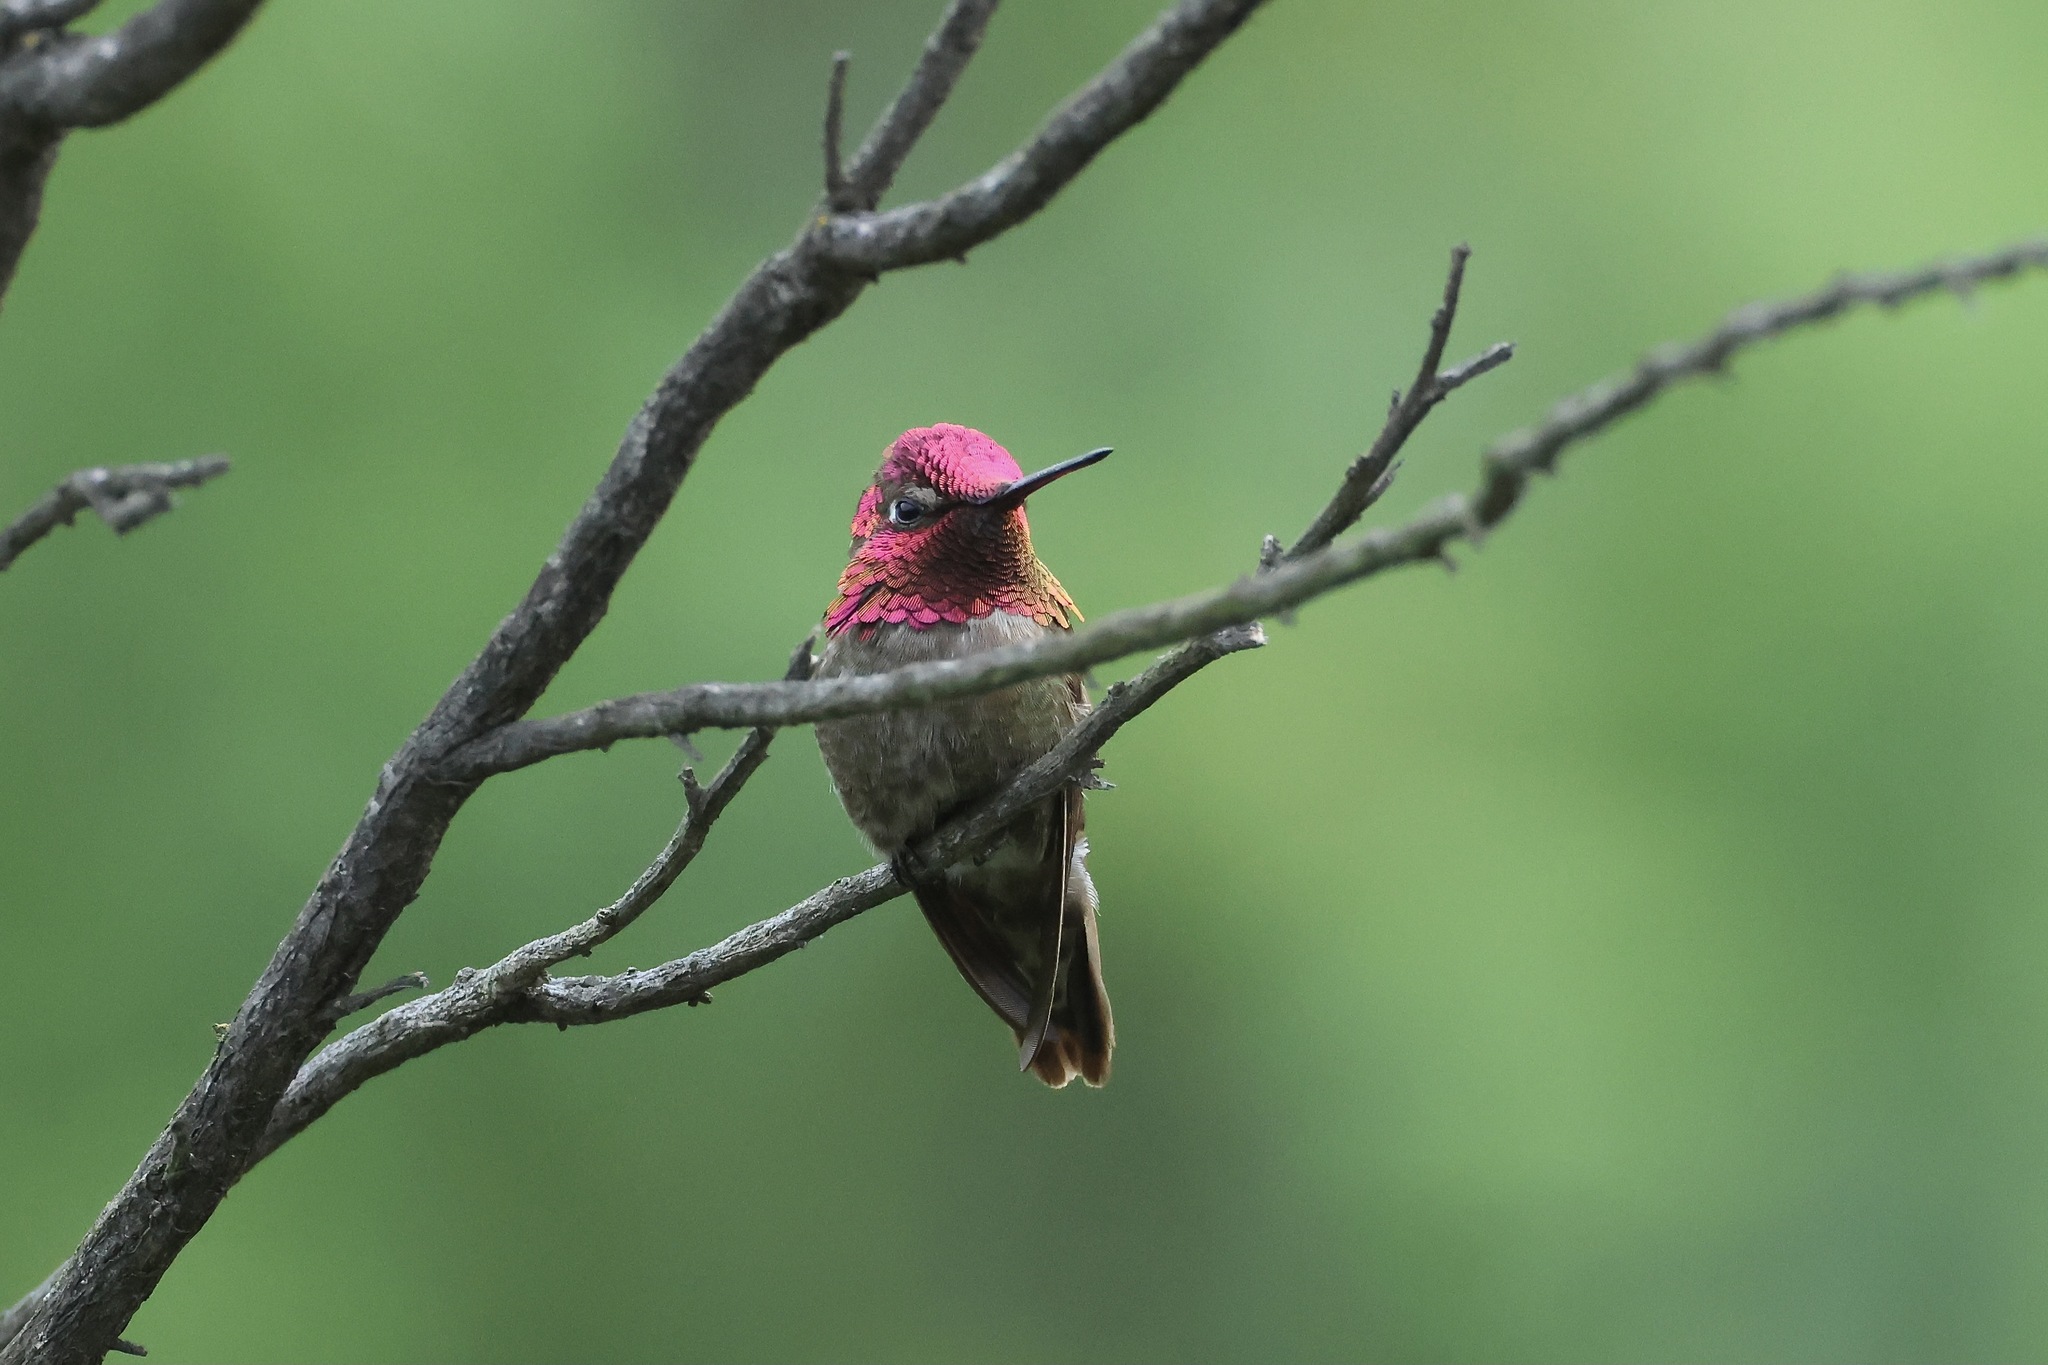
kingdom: Animalia
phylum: Chordata
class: Aves
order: Apodiformes
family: Trochilidae
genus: Calypte
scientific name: Calypte anna
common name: Anna's hummingbird
